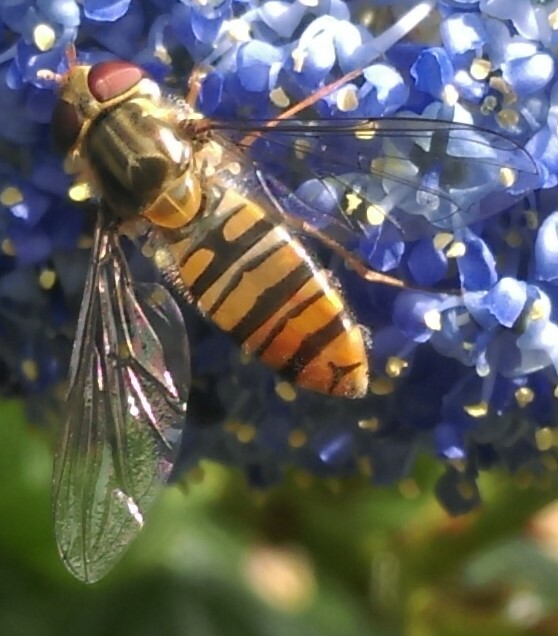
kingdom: Animalia
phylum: Arthropoda
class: Insecta
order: Diptera
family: Syrphidae
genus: Episyrphus
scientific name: Episyrphus balteatus
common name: Marmalade hoverfly
